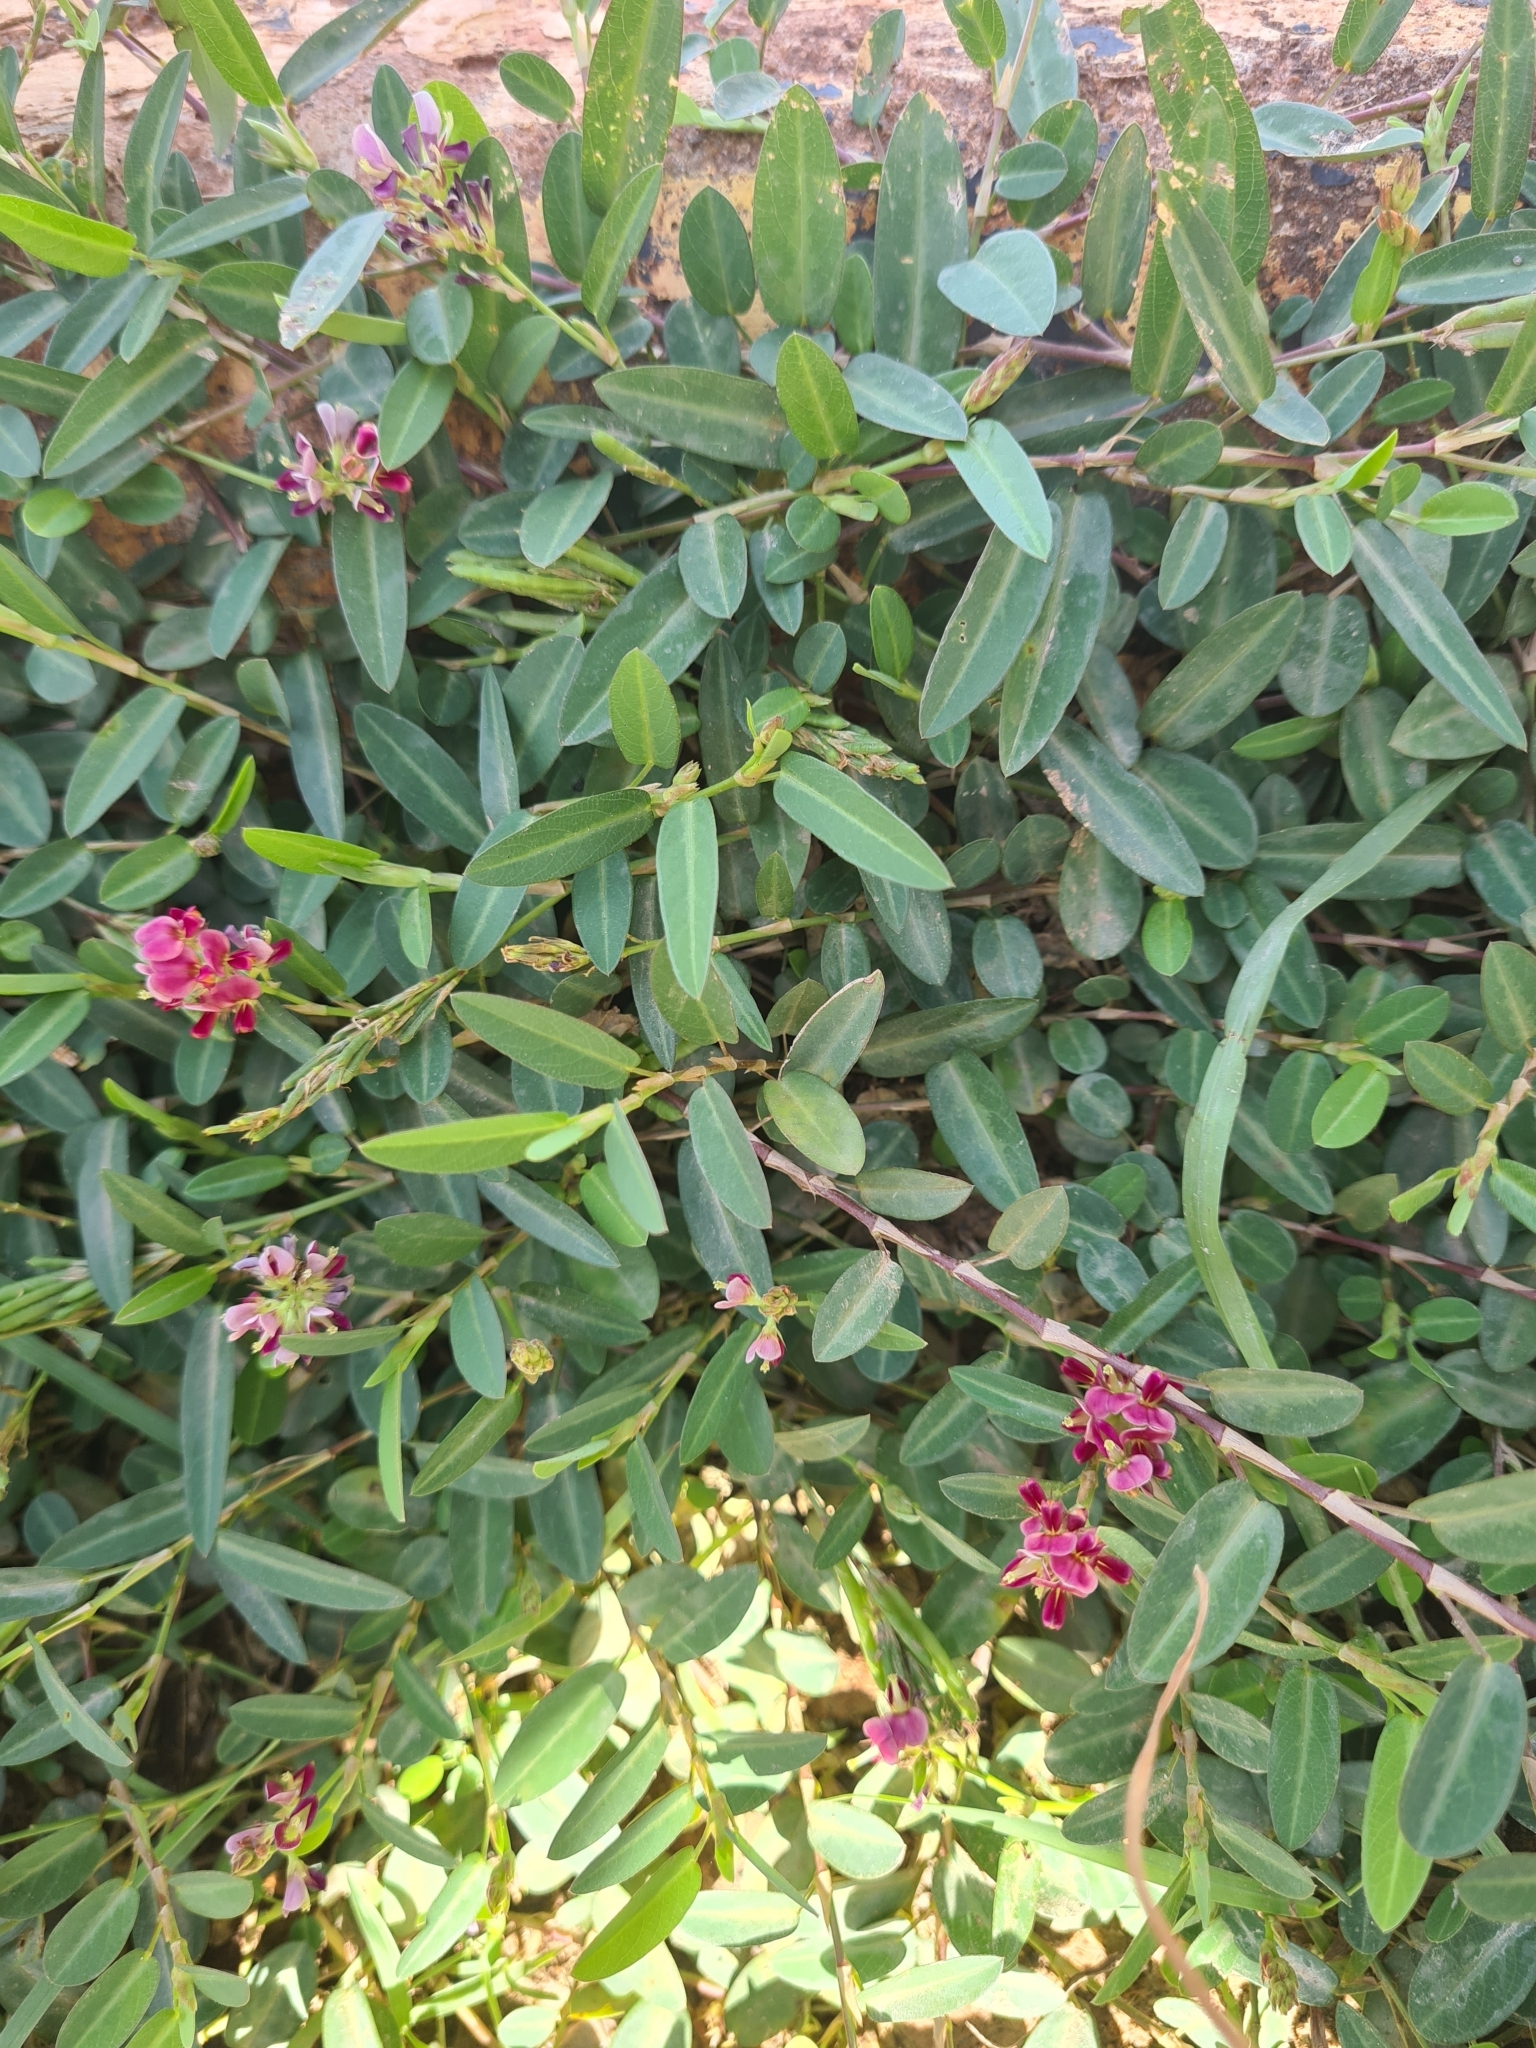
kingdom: Plantae
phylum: Tracheophyta
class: Magnoliopsida
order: Fabales
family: Fabaceae
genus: Alysicarpus
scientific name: Alysicarpus vaginalis
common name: White moneywort
